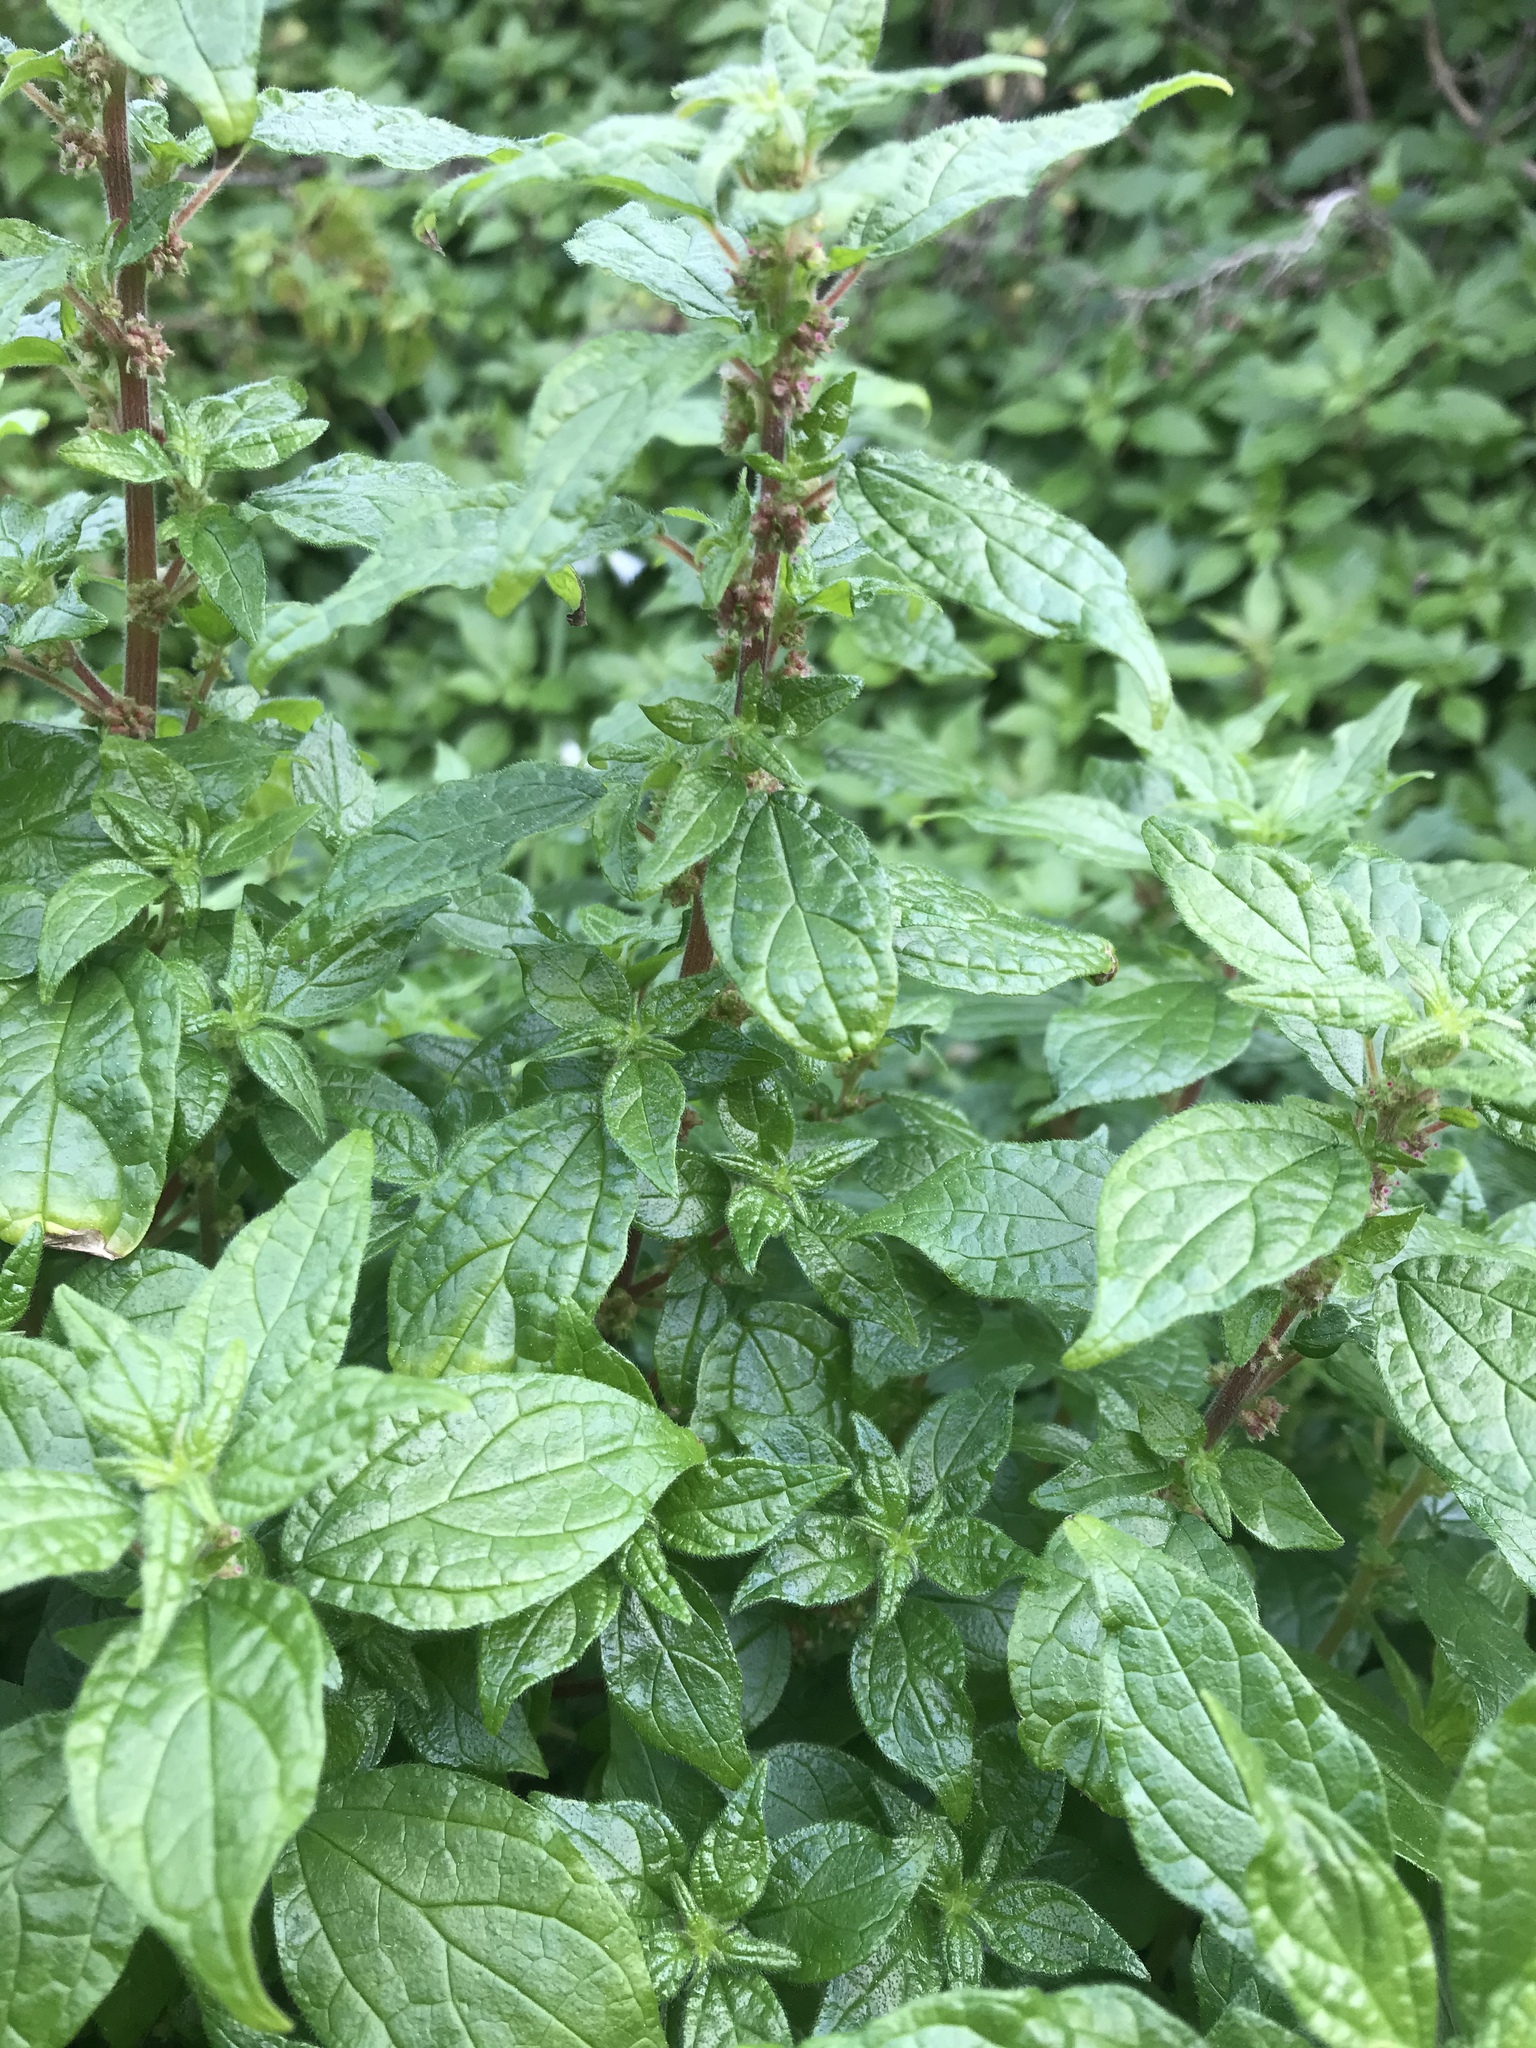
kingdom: Plantae
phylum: Tracheophyta
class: Magnoliopsida
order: Rosales
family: Urticaceae
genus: Parietaria
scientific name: Parietaria judaica
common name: Pellitory-of-the-wall
